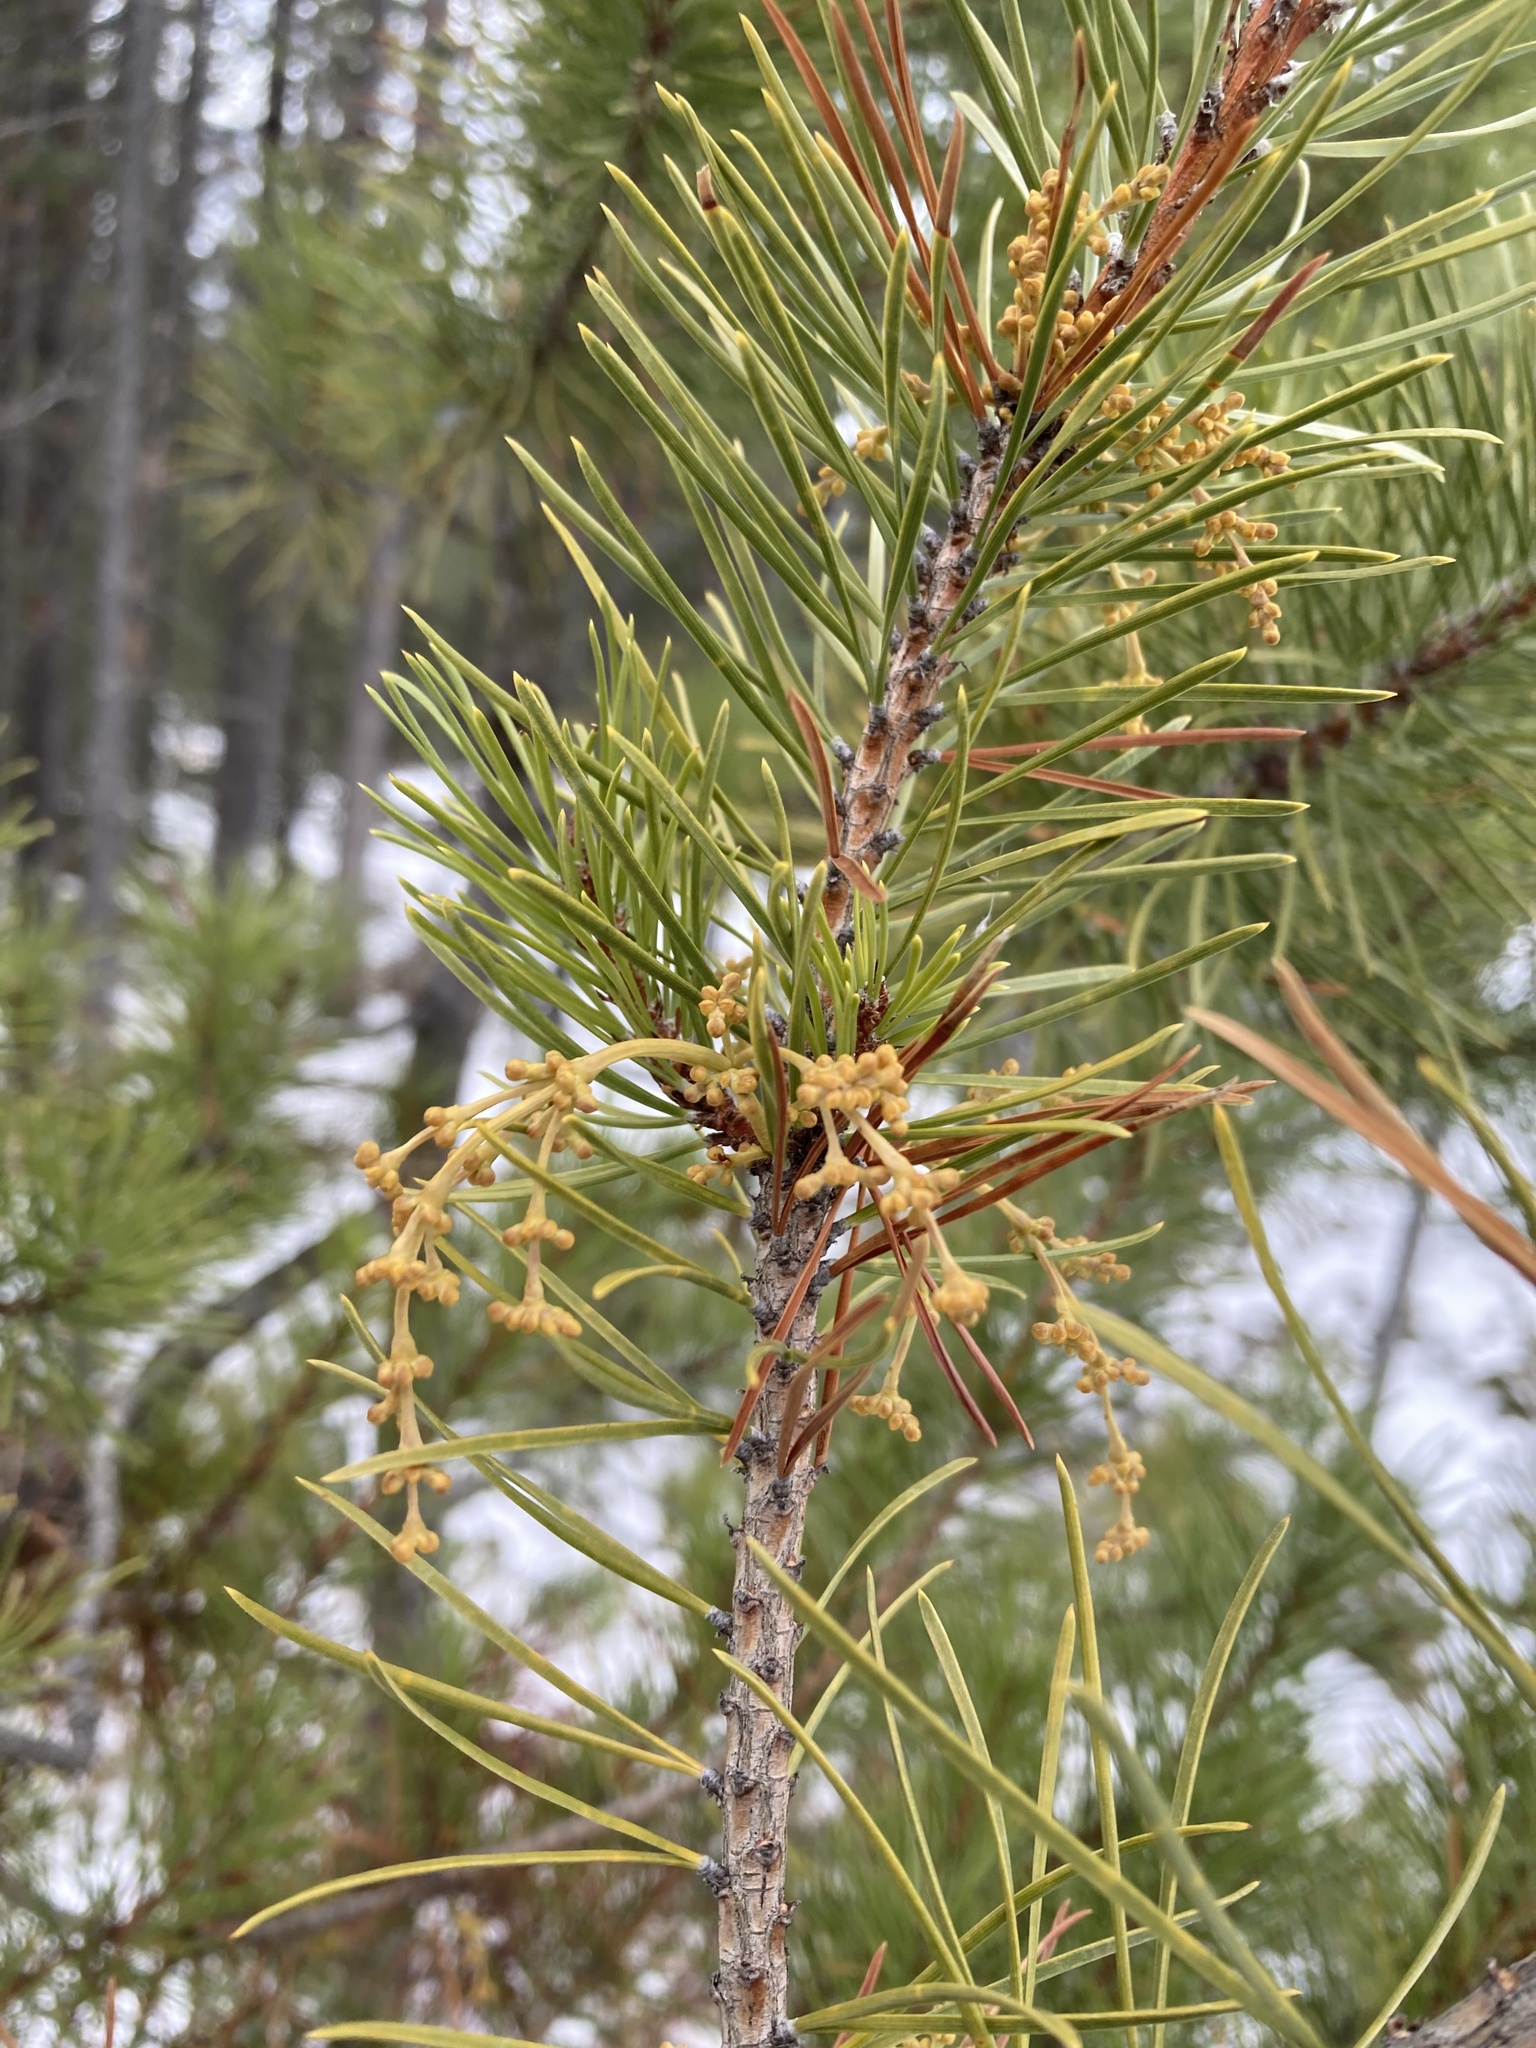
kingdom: Plantae
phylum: Tracheophyta
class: Magnoliopsida
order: Santalales
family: Viscaceae
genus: Arceuthobium
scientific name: Arceuthobium americanum
